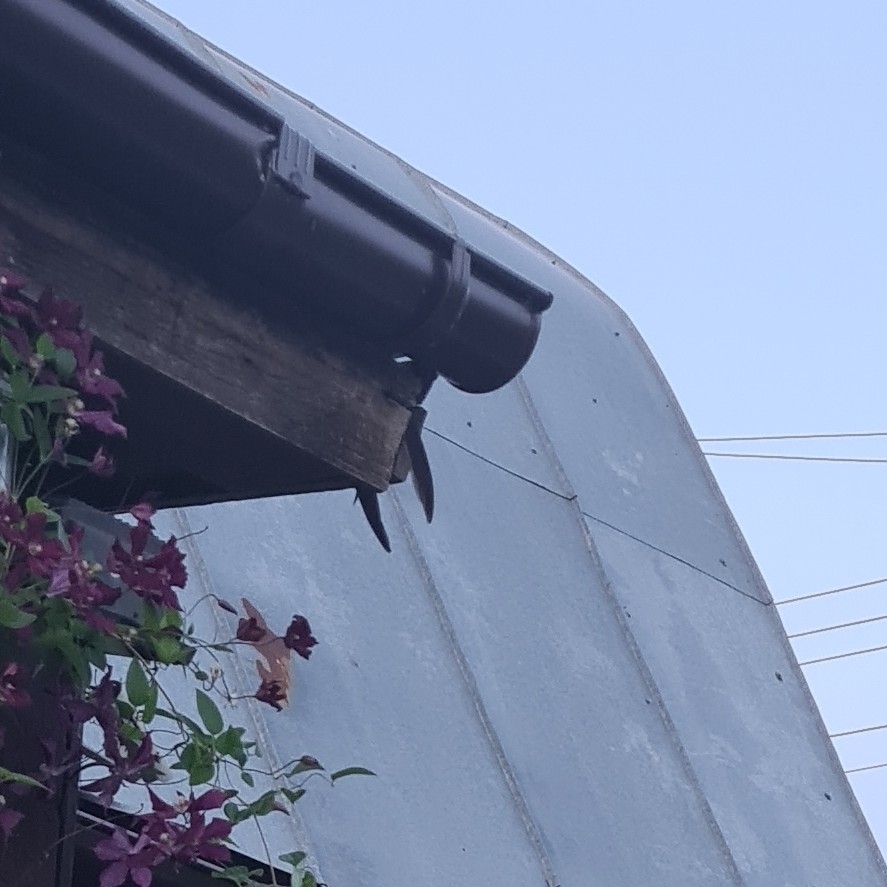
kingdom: Animalia
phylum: Chordata
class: Aves
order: Apodiformes
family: Apodidae
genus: Apus
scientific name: Apus apus
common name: Common swift
